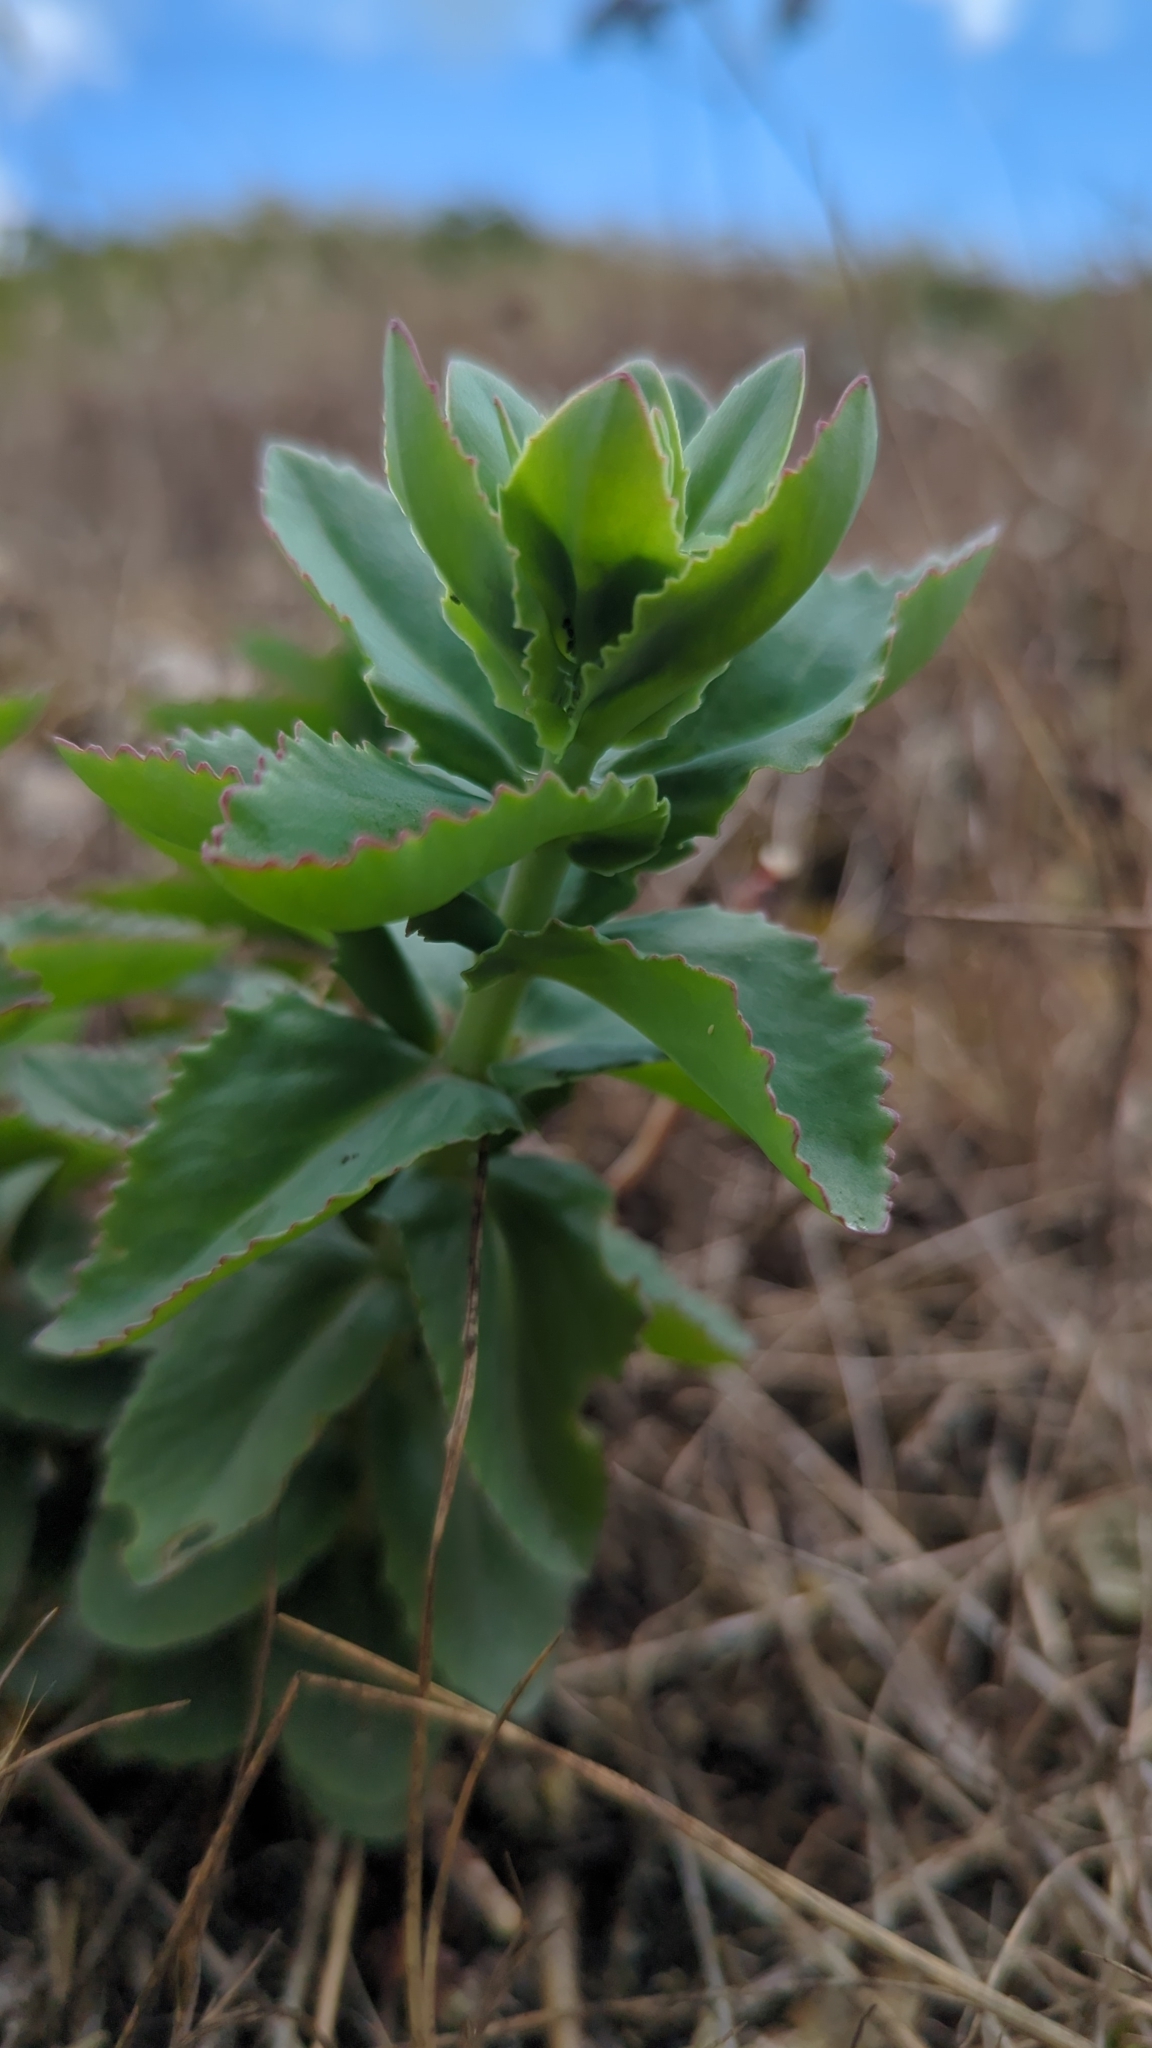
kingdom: Plantae
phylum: Tracheophyta
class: Magnoliopsida
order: Saxifragales
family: Crassulaceae
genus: Hylotelephium
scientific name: Hylotelephium maximum
